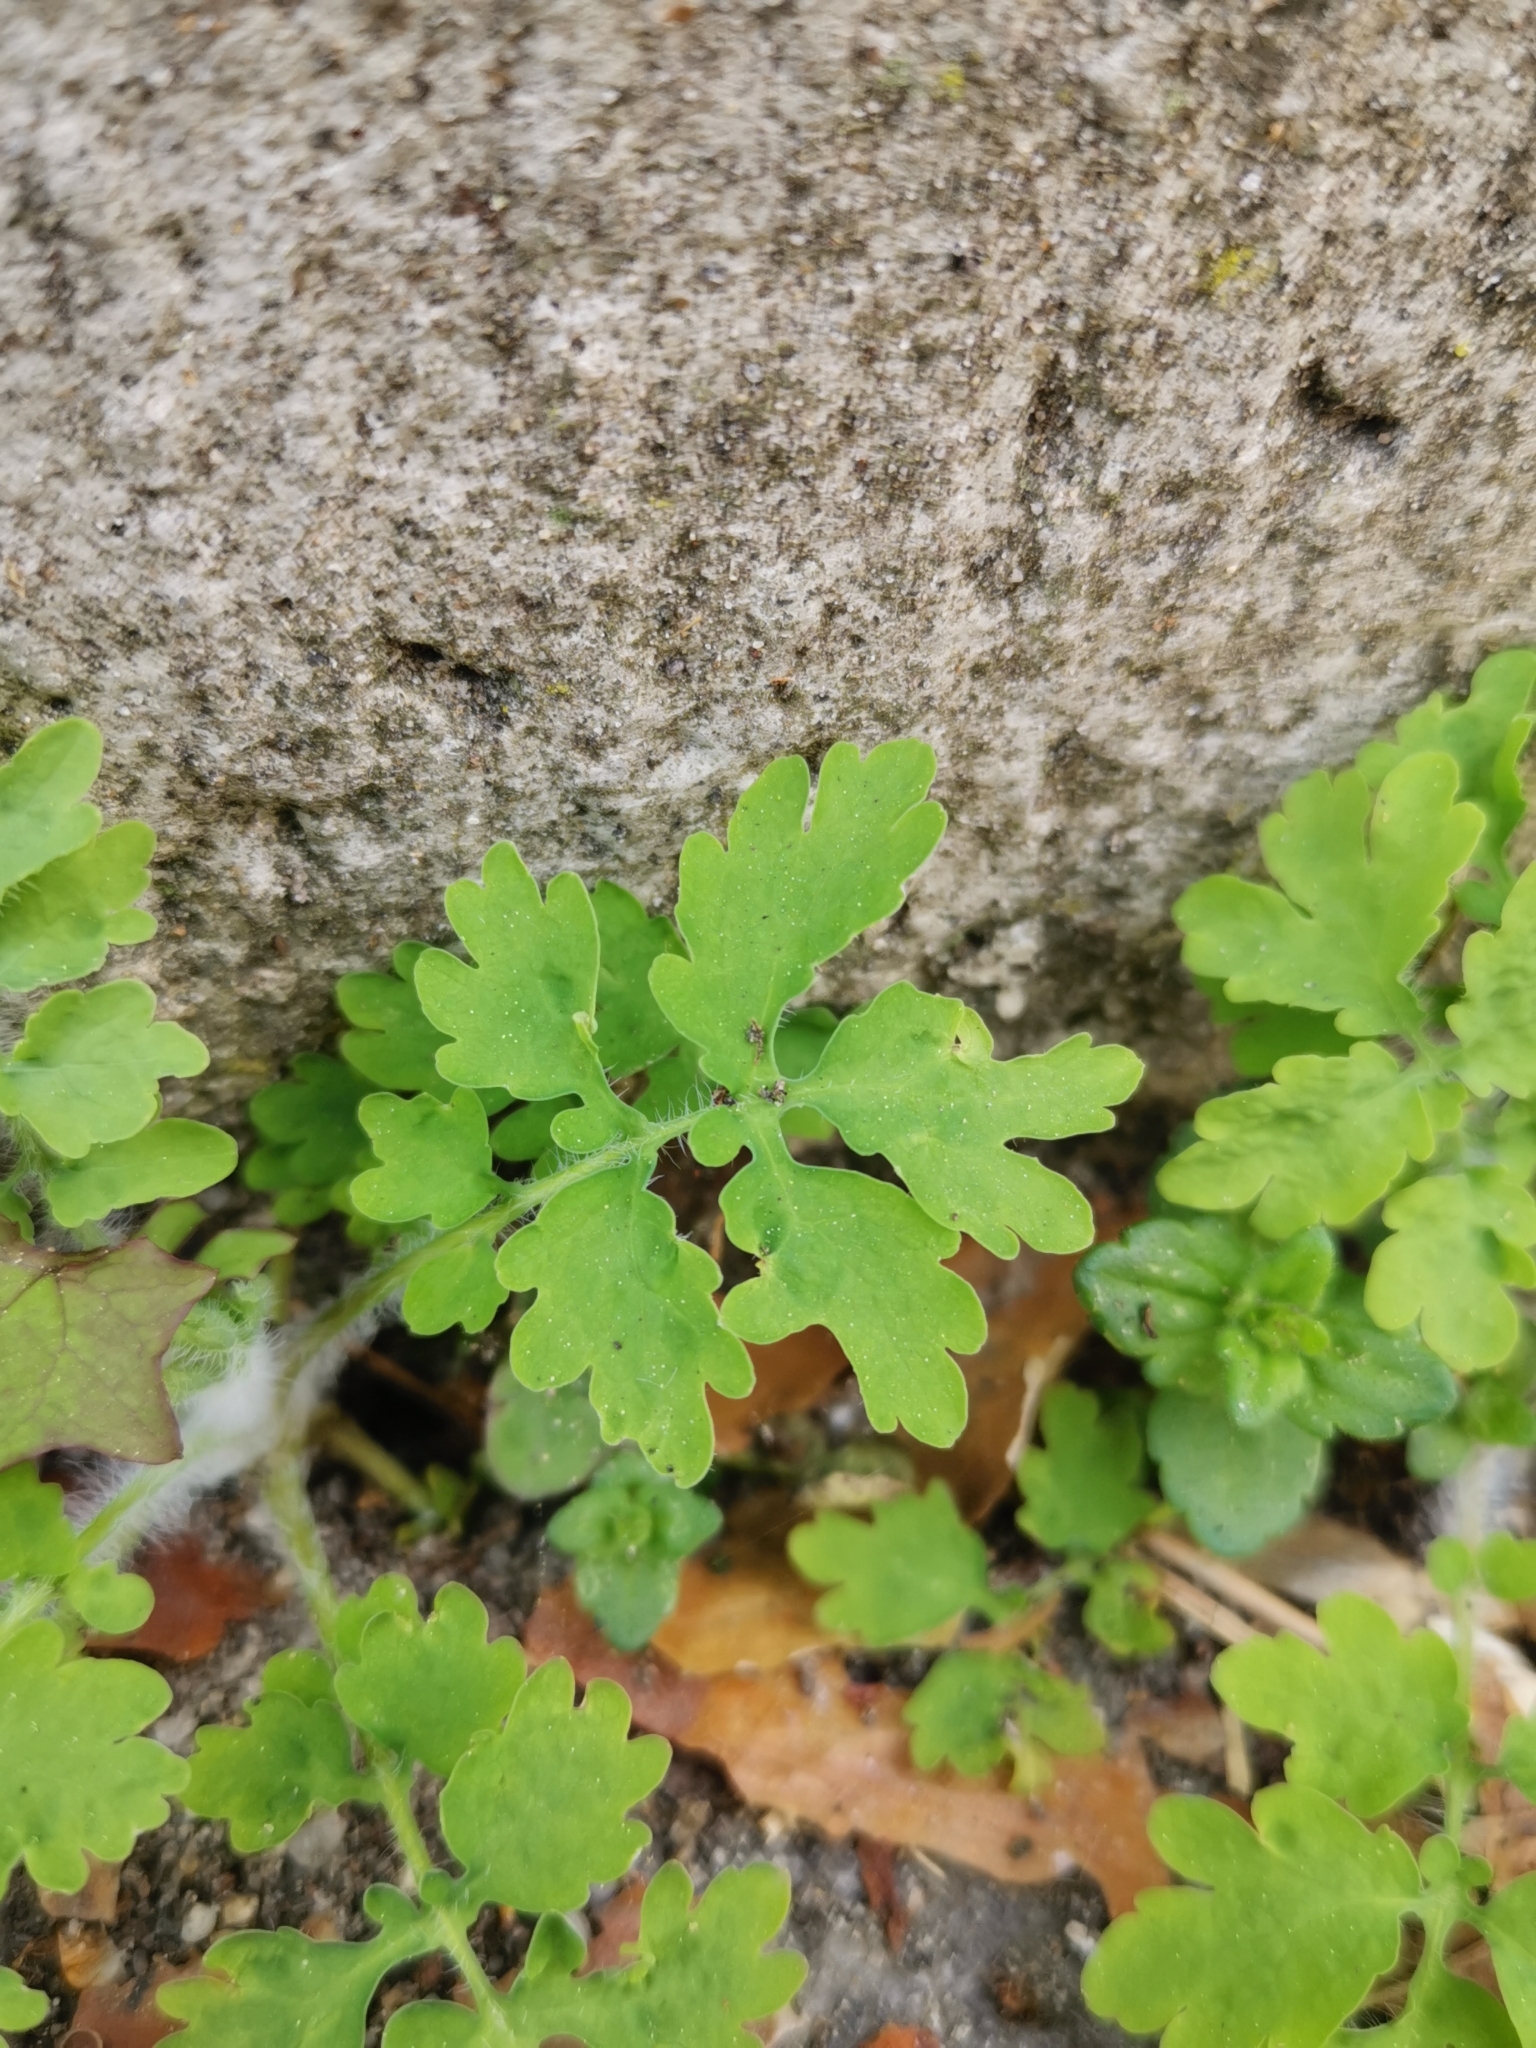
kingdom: Plantae
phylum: Tracheophyta
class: Magnoliopsida
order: Ranunculales
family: Papaveraceae
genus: Chelidonium
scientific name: Chelidonium majus
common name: Greater celandine
